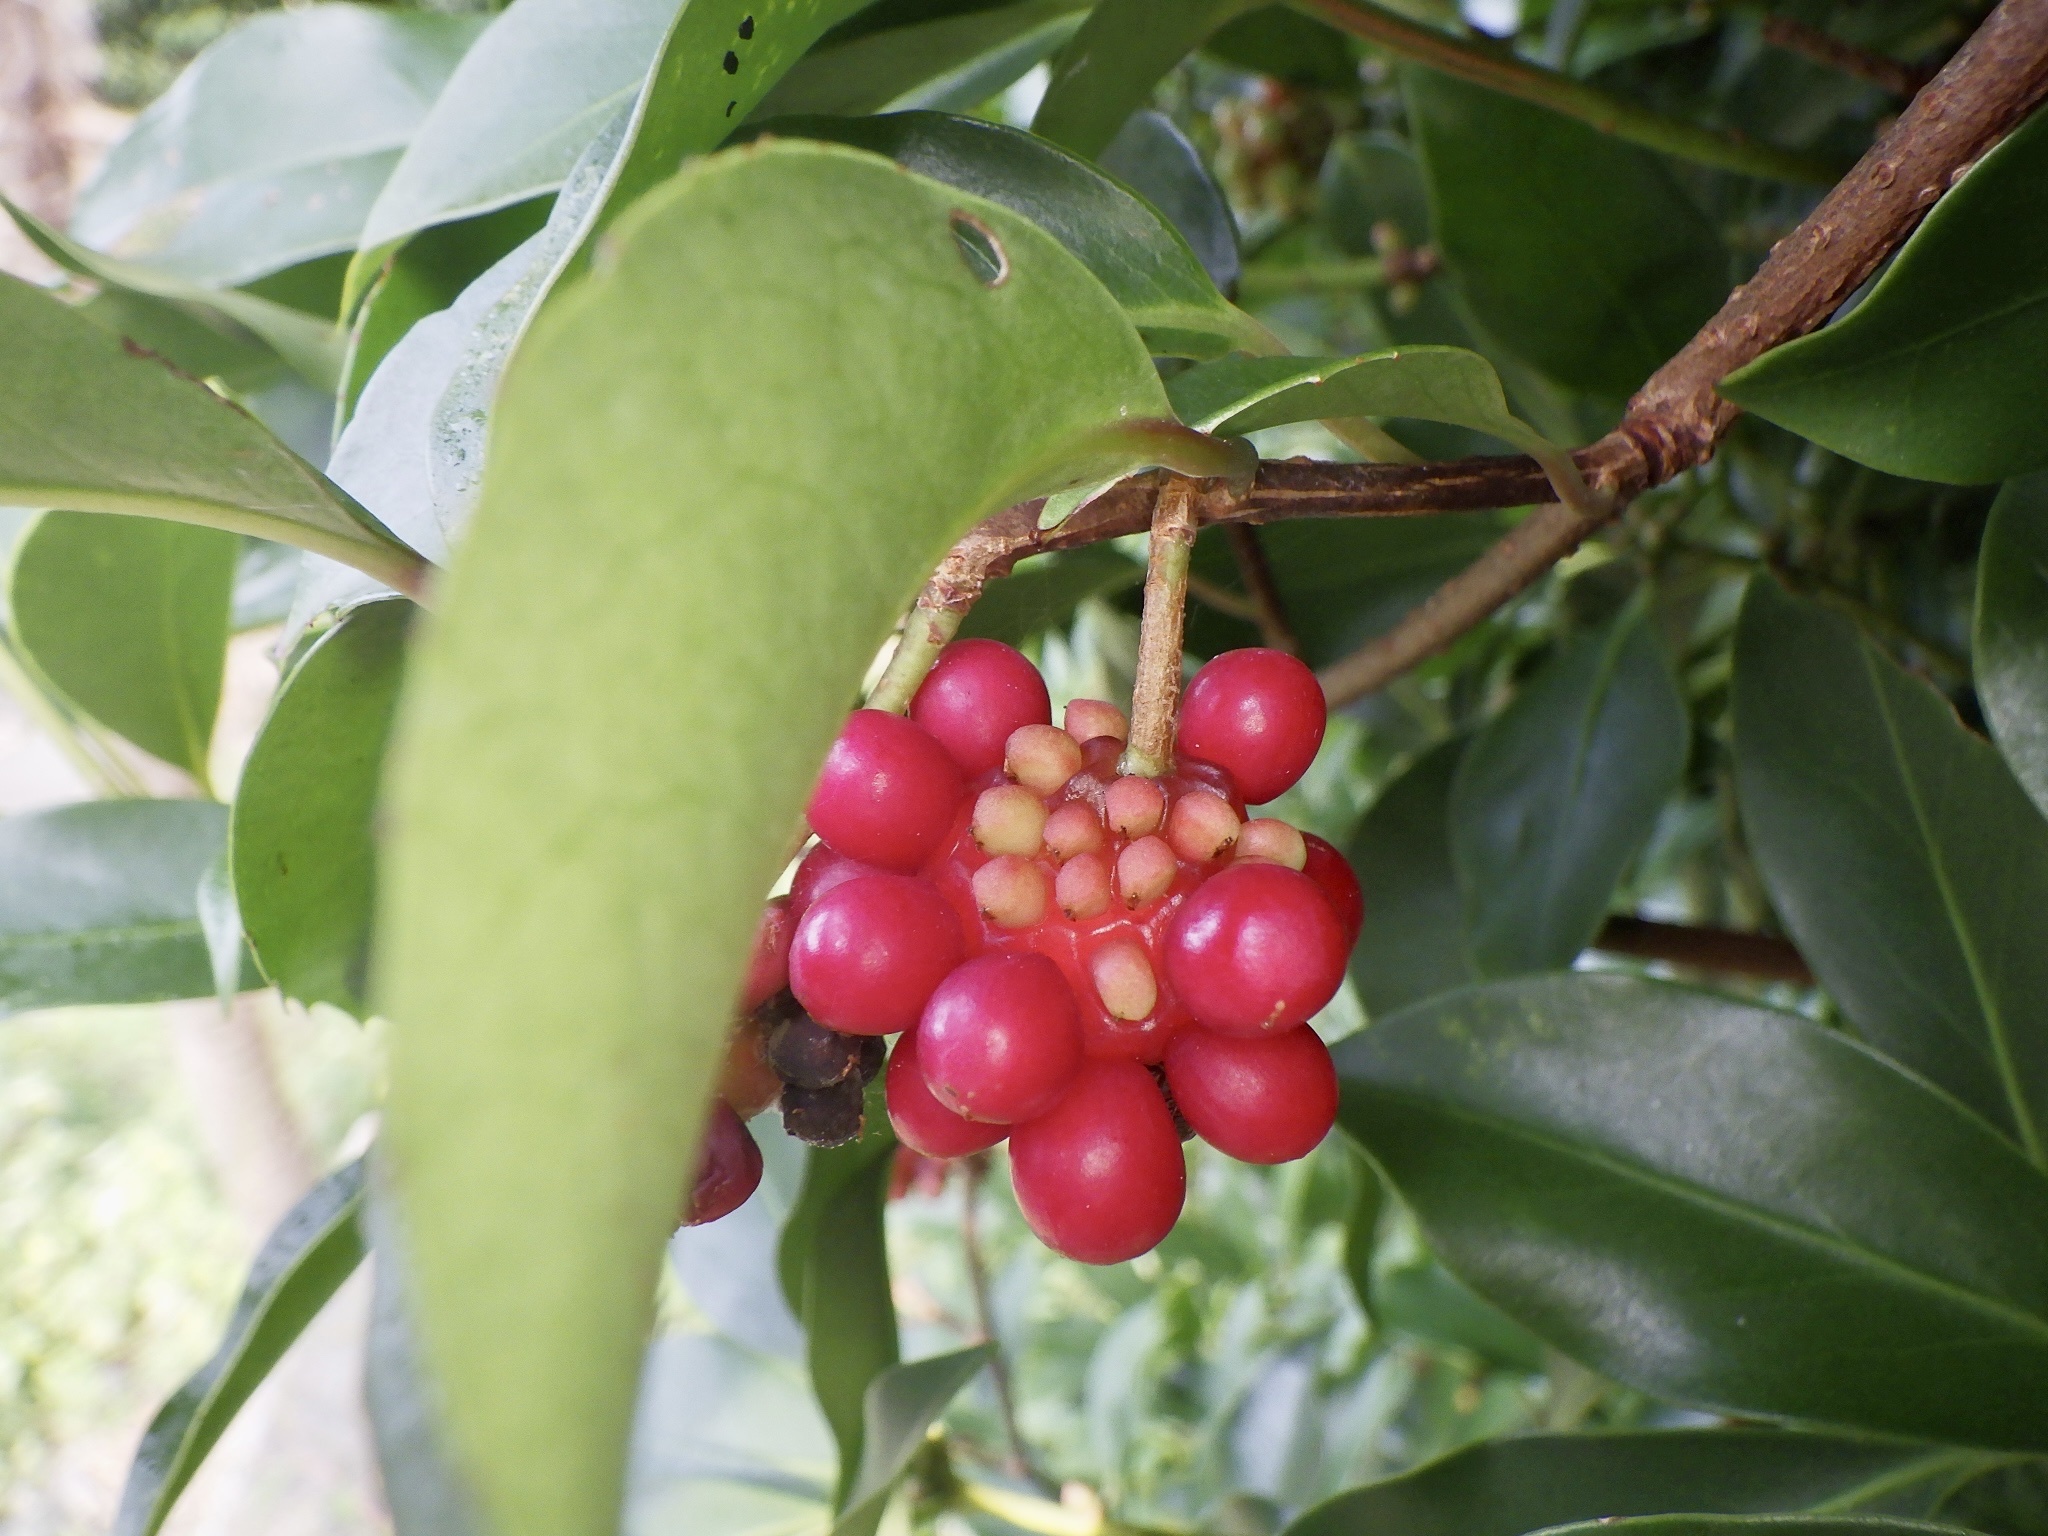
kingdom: Plantae
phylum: Tracheophyta
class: Magnoliopsida
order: Austrobaileyales
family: Schisandraceae
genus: Kadsura
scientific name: Kadsura japonica
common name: Japanese kadsura
